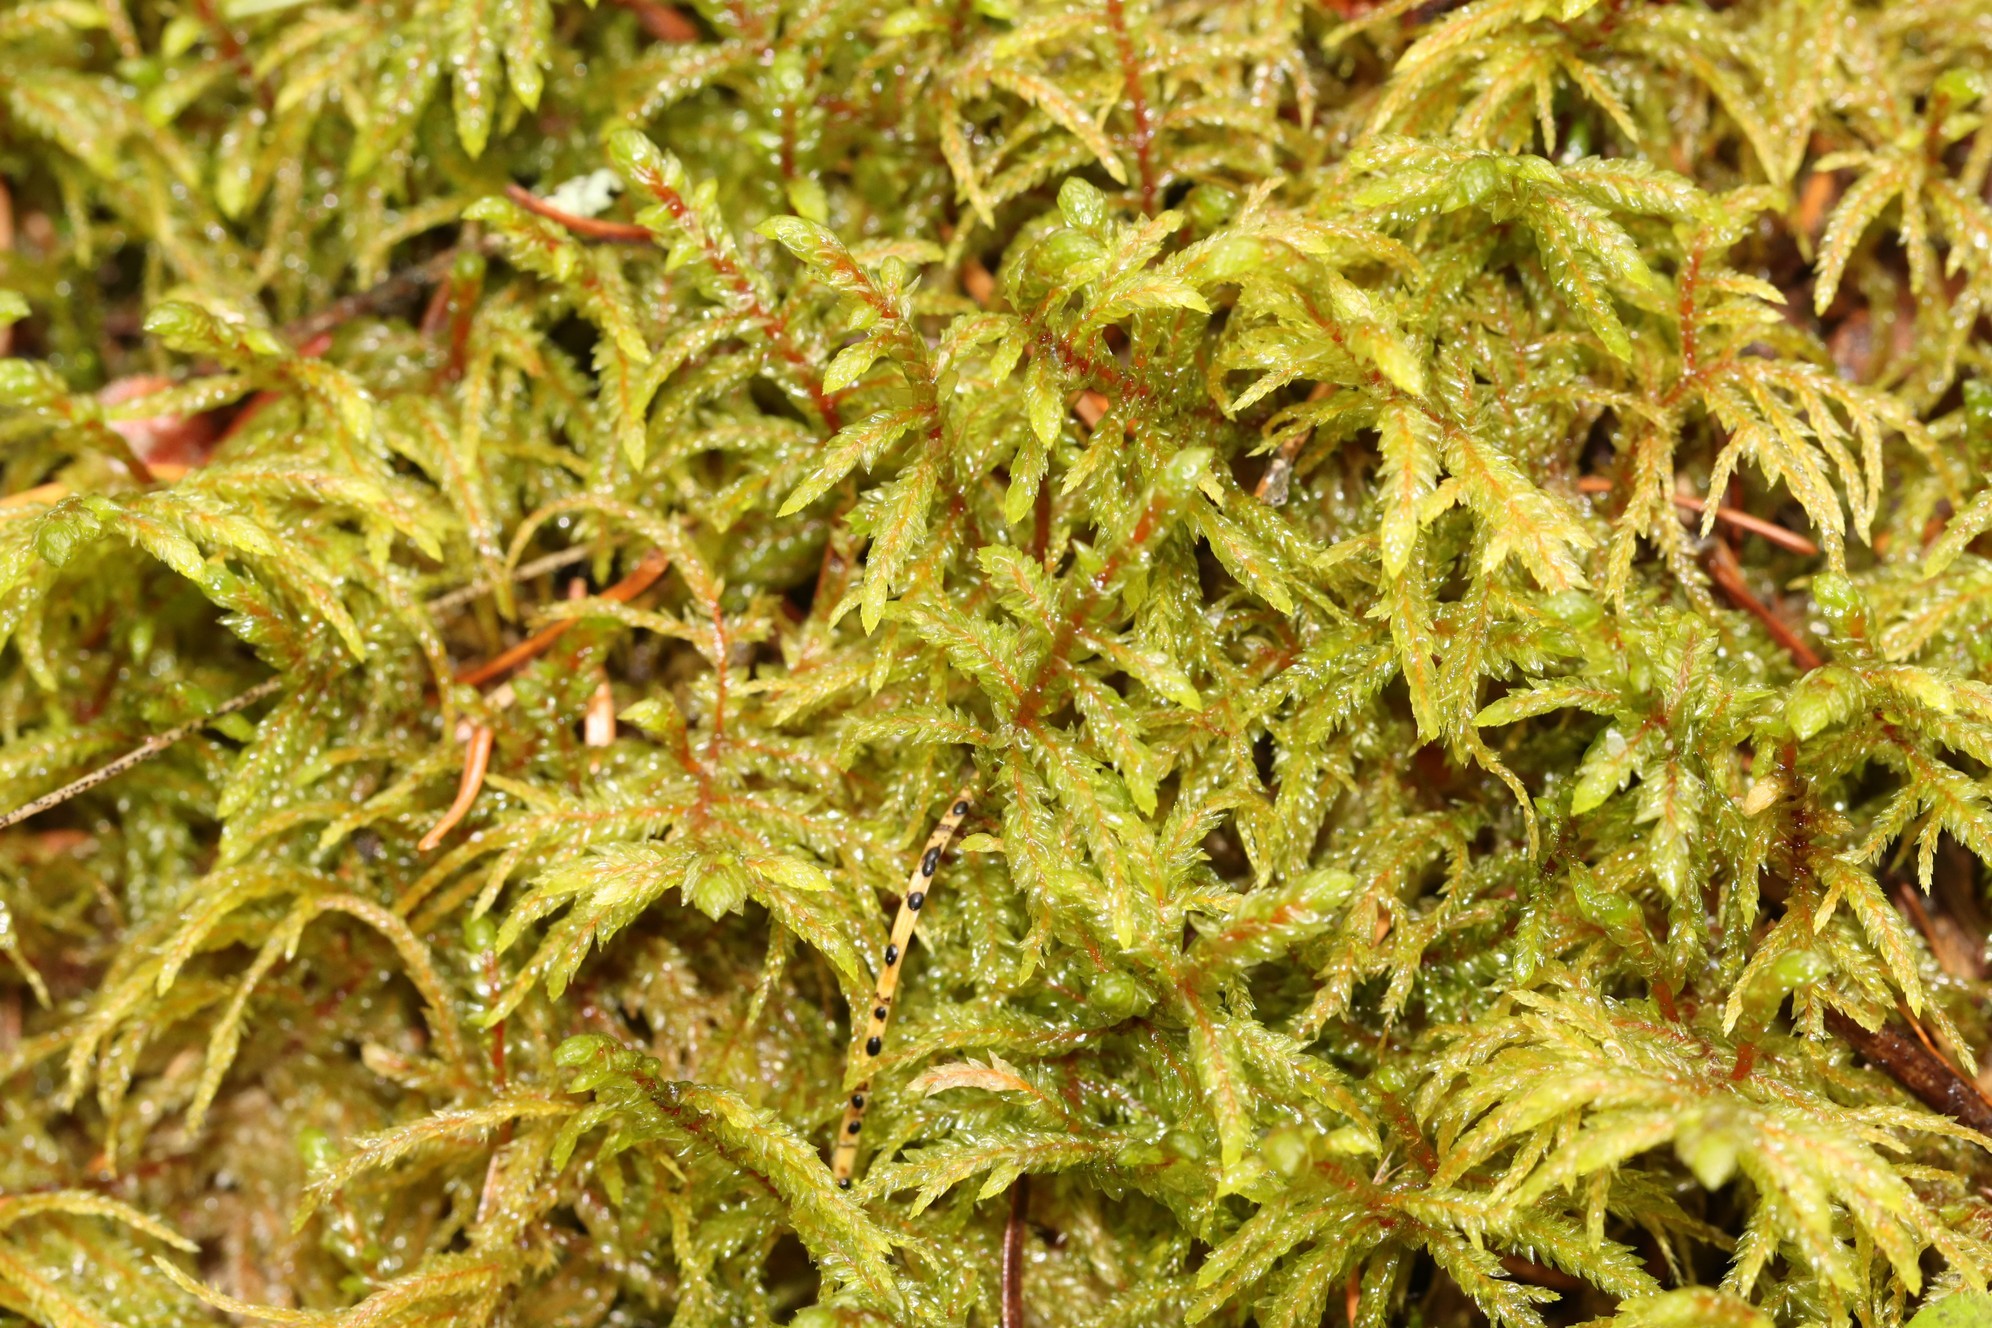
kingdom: Plantae
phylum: Bryophyta
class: Bryopsida
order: Hypnales
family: Hylocomiaceae
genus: Pleurozium
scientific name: Pleurozium schreberi
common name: Red-stemmed feather moss
